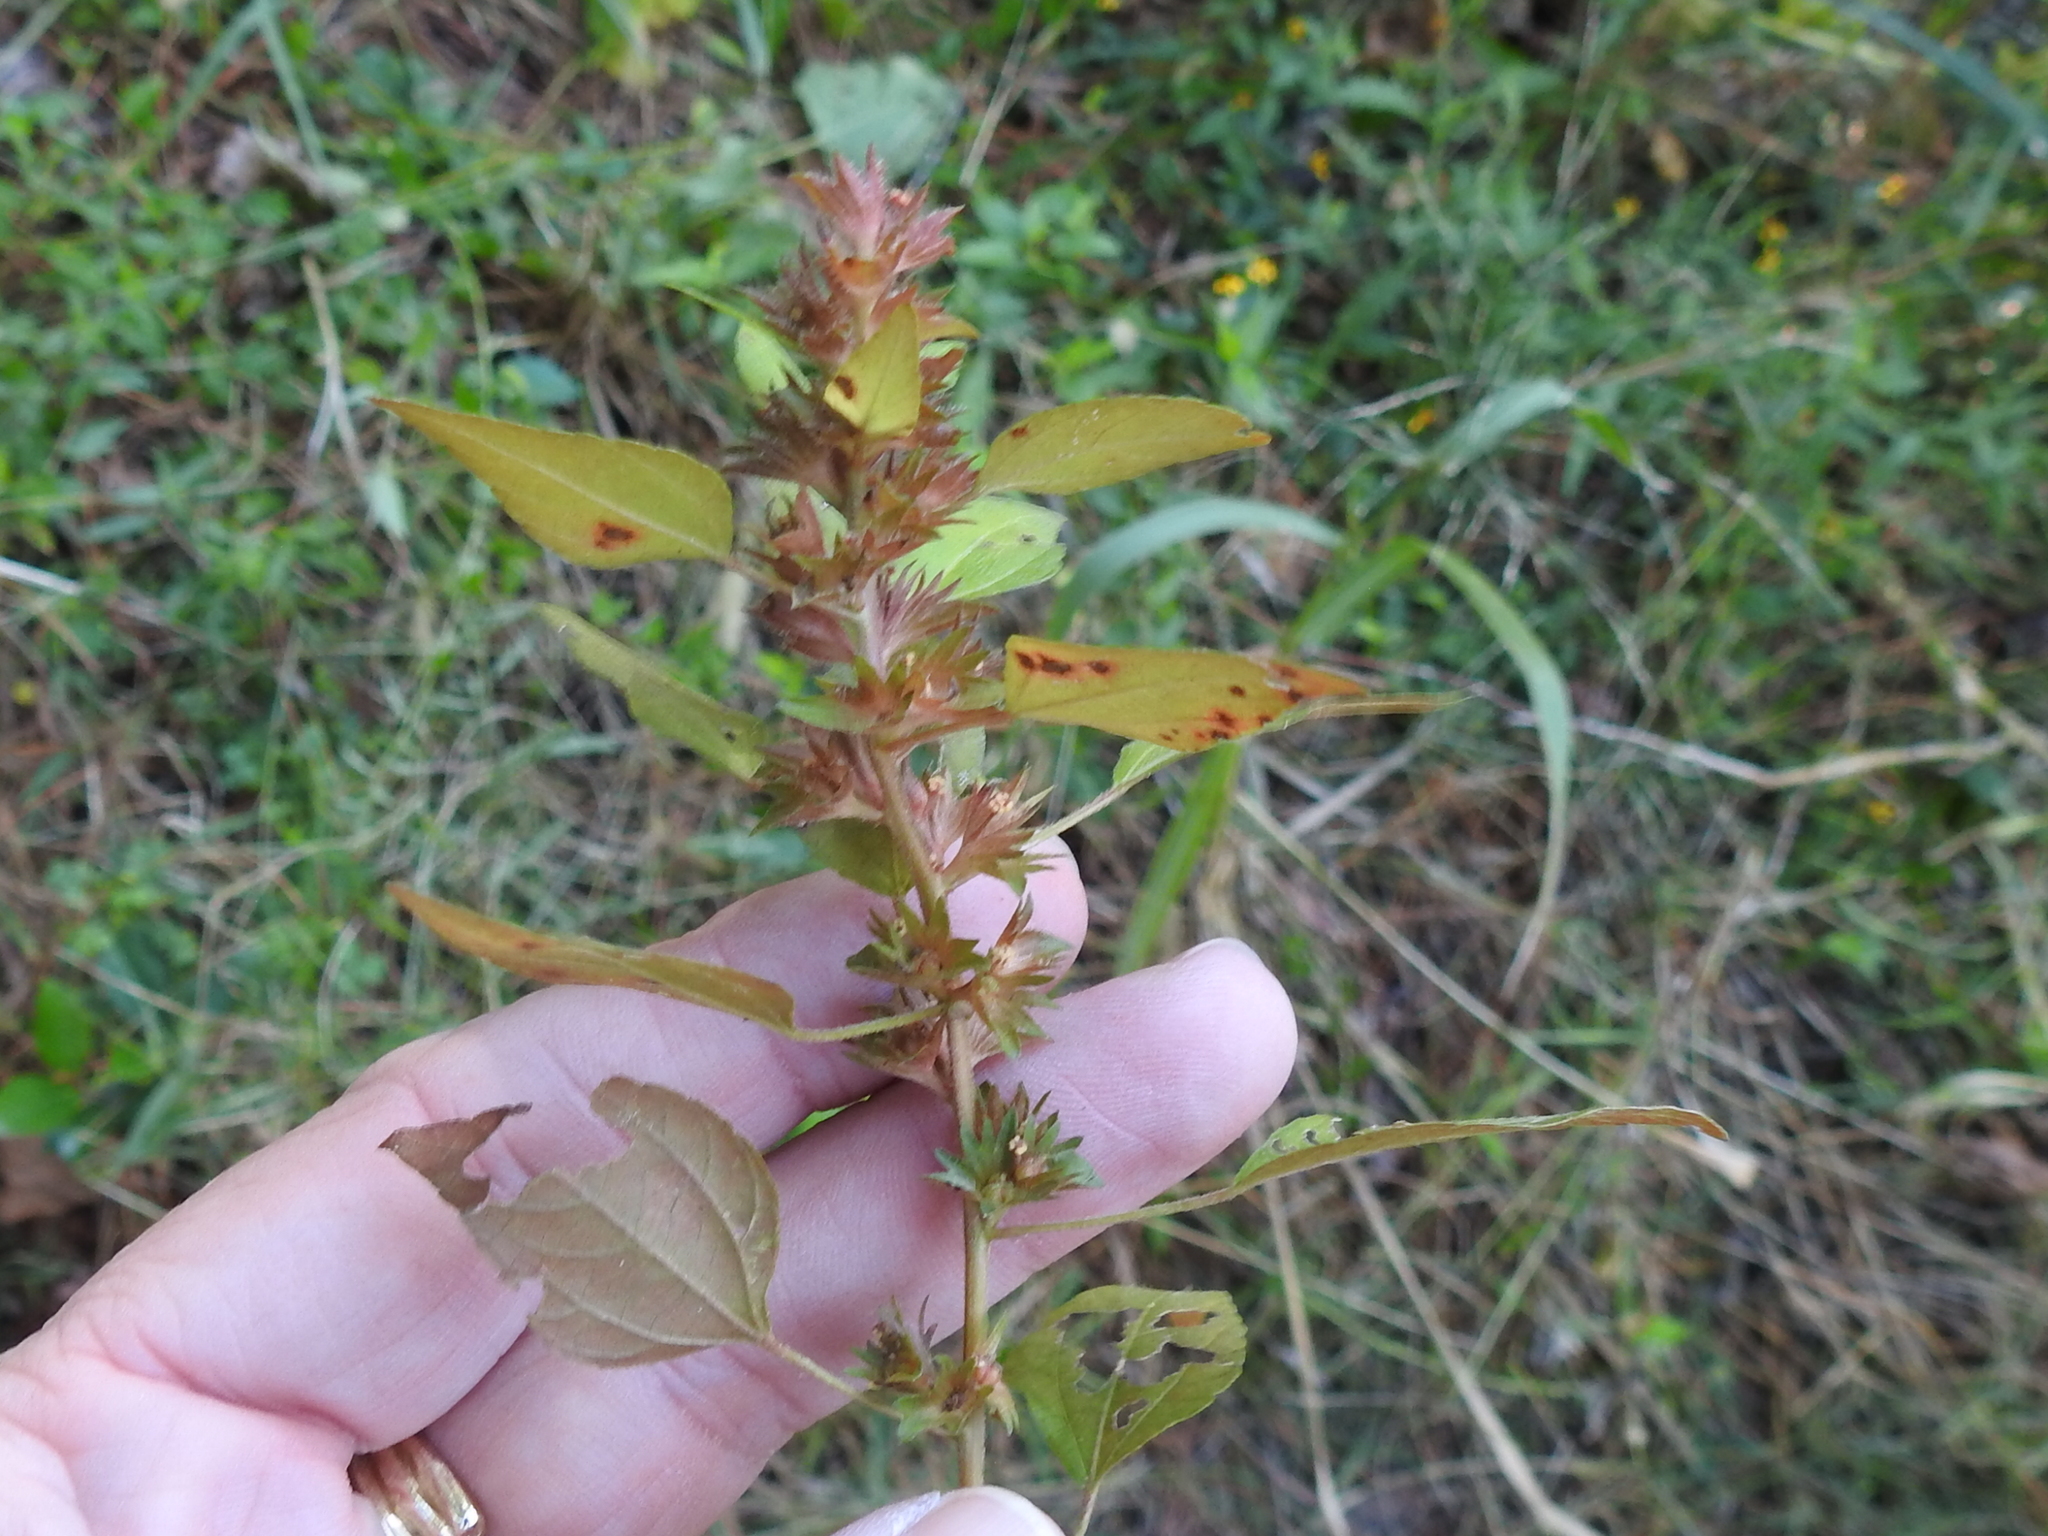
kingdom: Plantae
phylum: Tracheophyta
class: Magnoliopsida
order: Malpighiales
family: Euphorbiaceae
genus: Acalypha
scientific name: Acalypha rhomboidea
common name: Rhombic copperleaf
